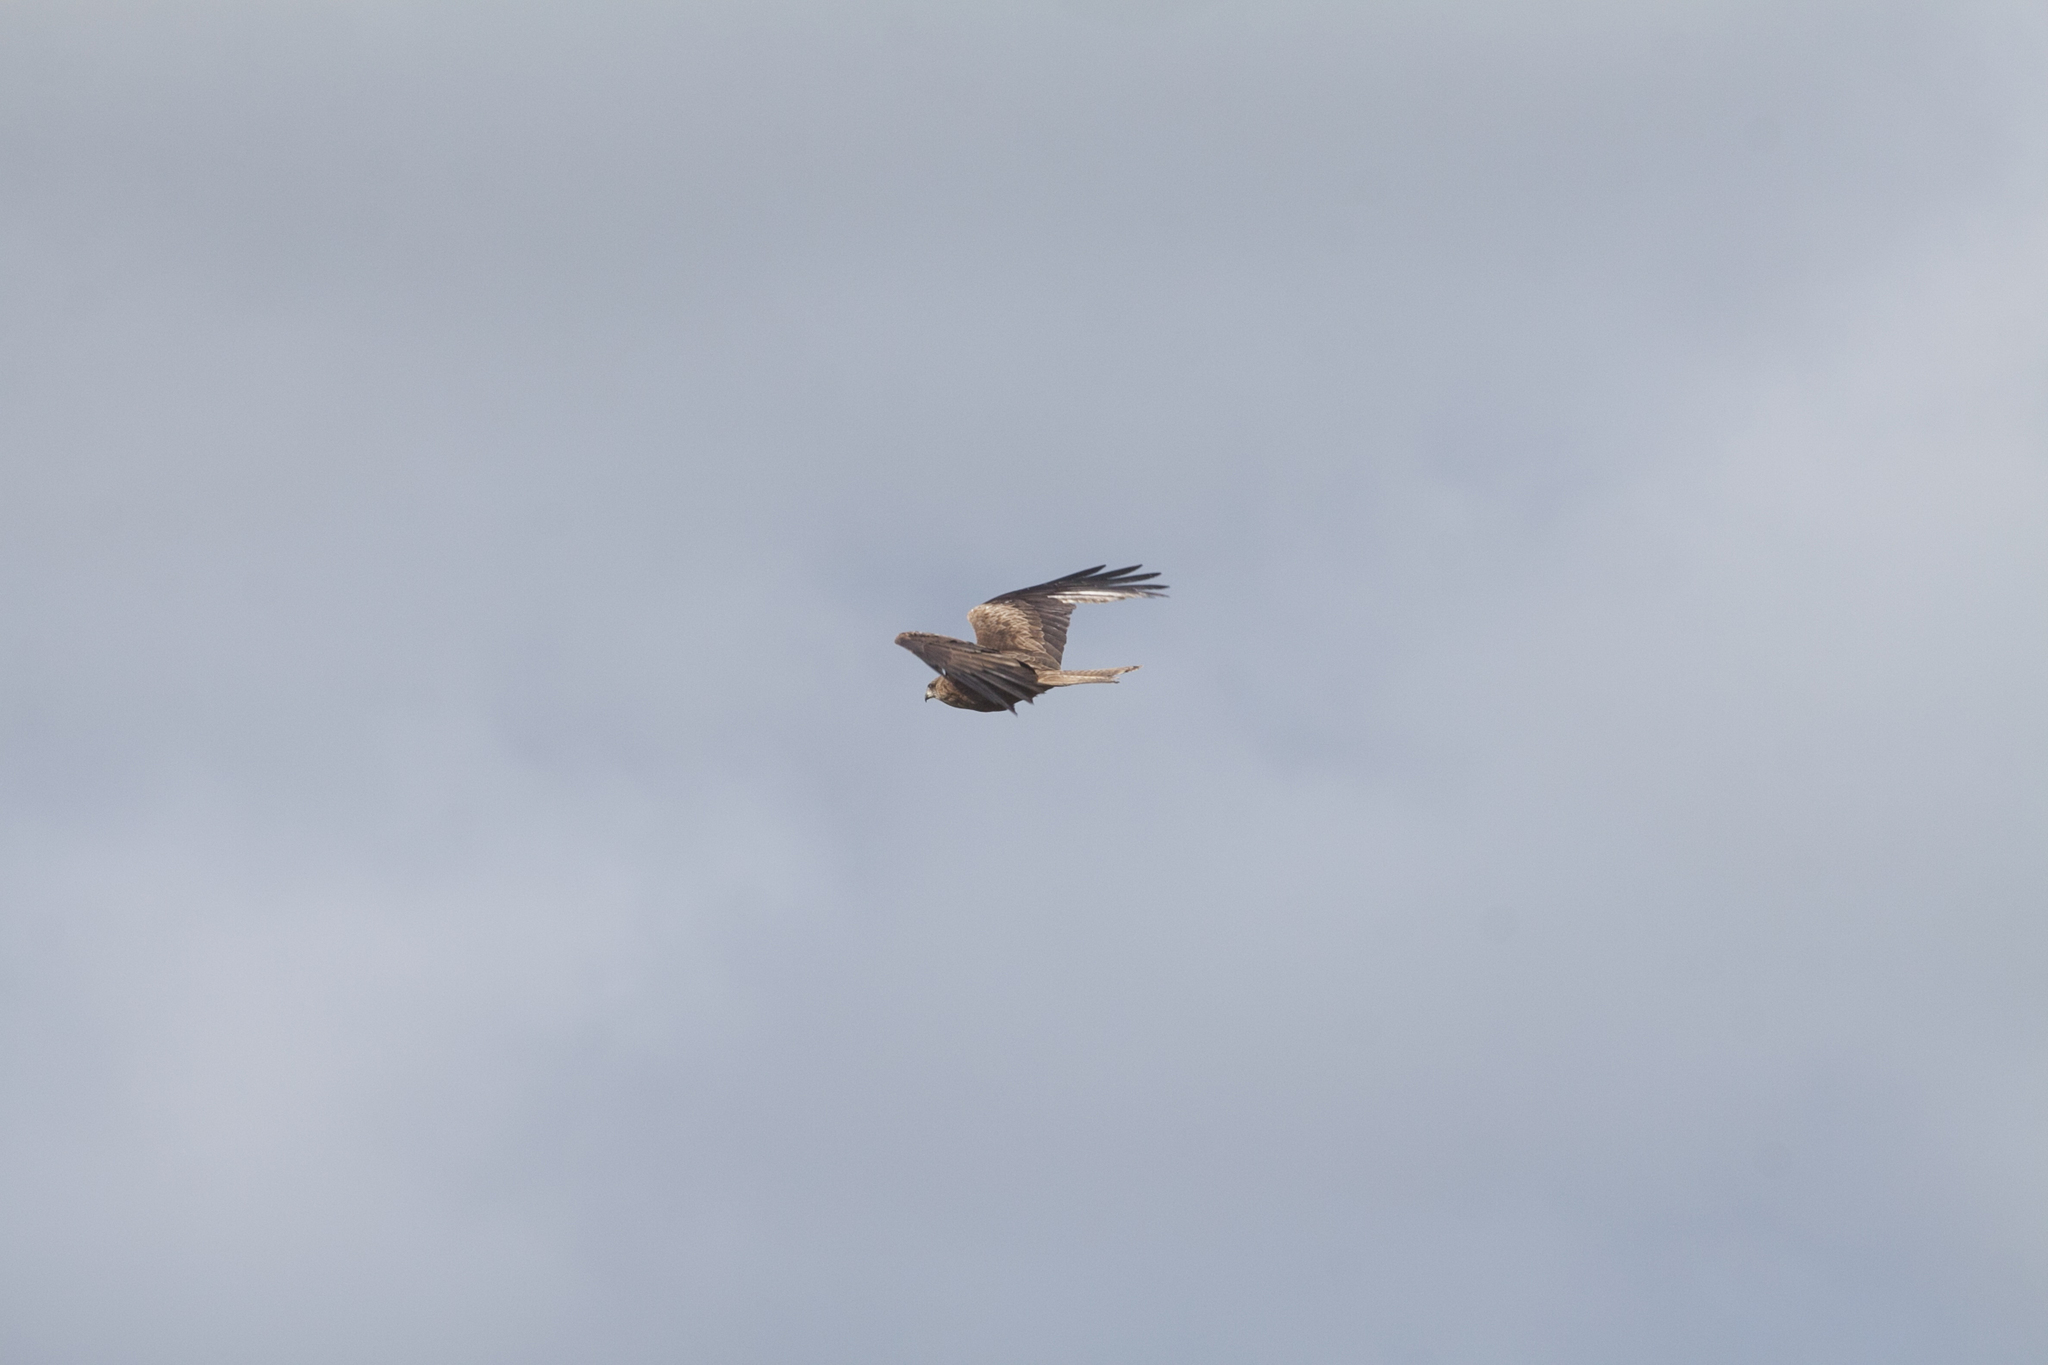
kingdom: Animalia
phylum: Chordata
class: Aves
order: Accipitriformes
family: Accipitridae
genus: Milvus
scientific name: Milvus migrans
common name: Black kite
